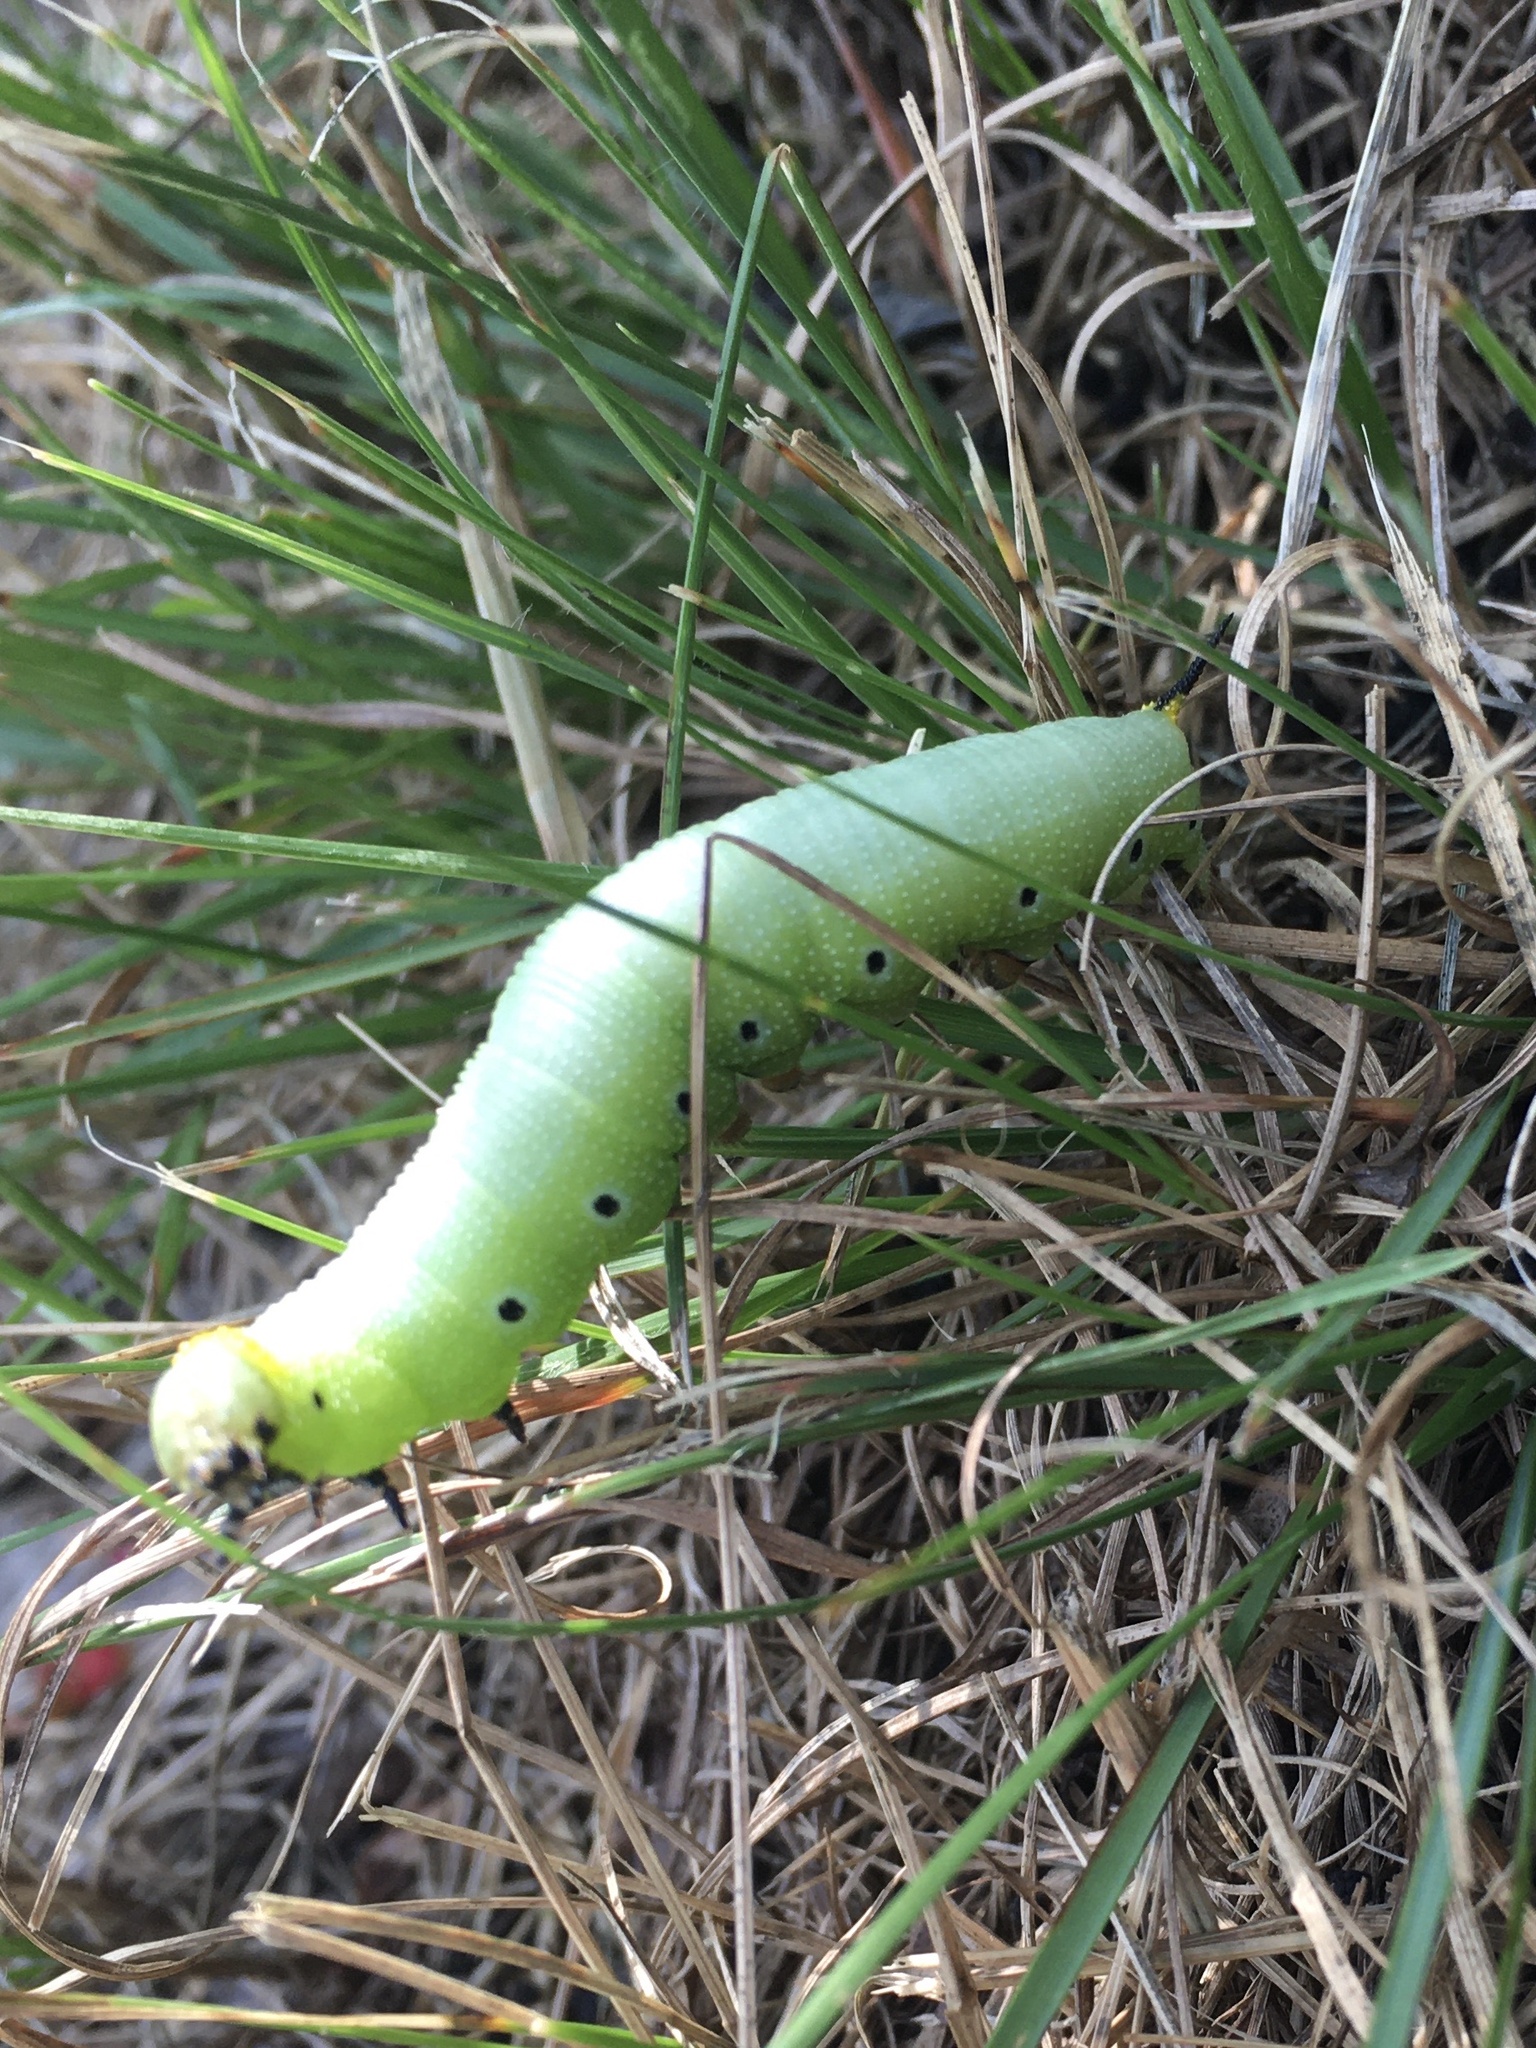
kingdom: Animalia
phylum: Arthropoda
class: Insecta
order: Lepidoptera
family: Sphingidae
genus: Hemaris
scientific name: Hemaris diffinis
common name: Bumblebee moth
